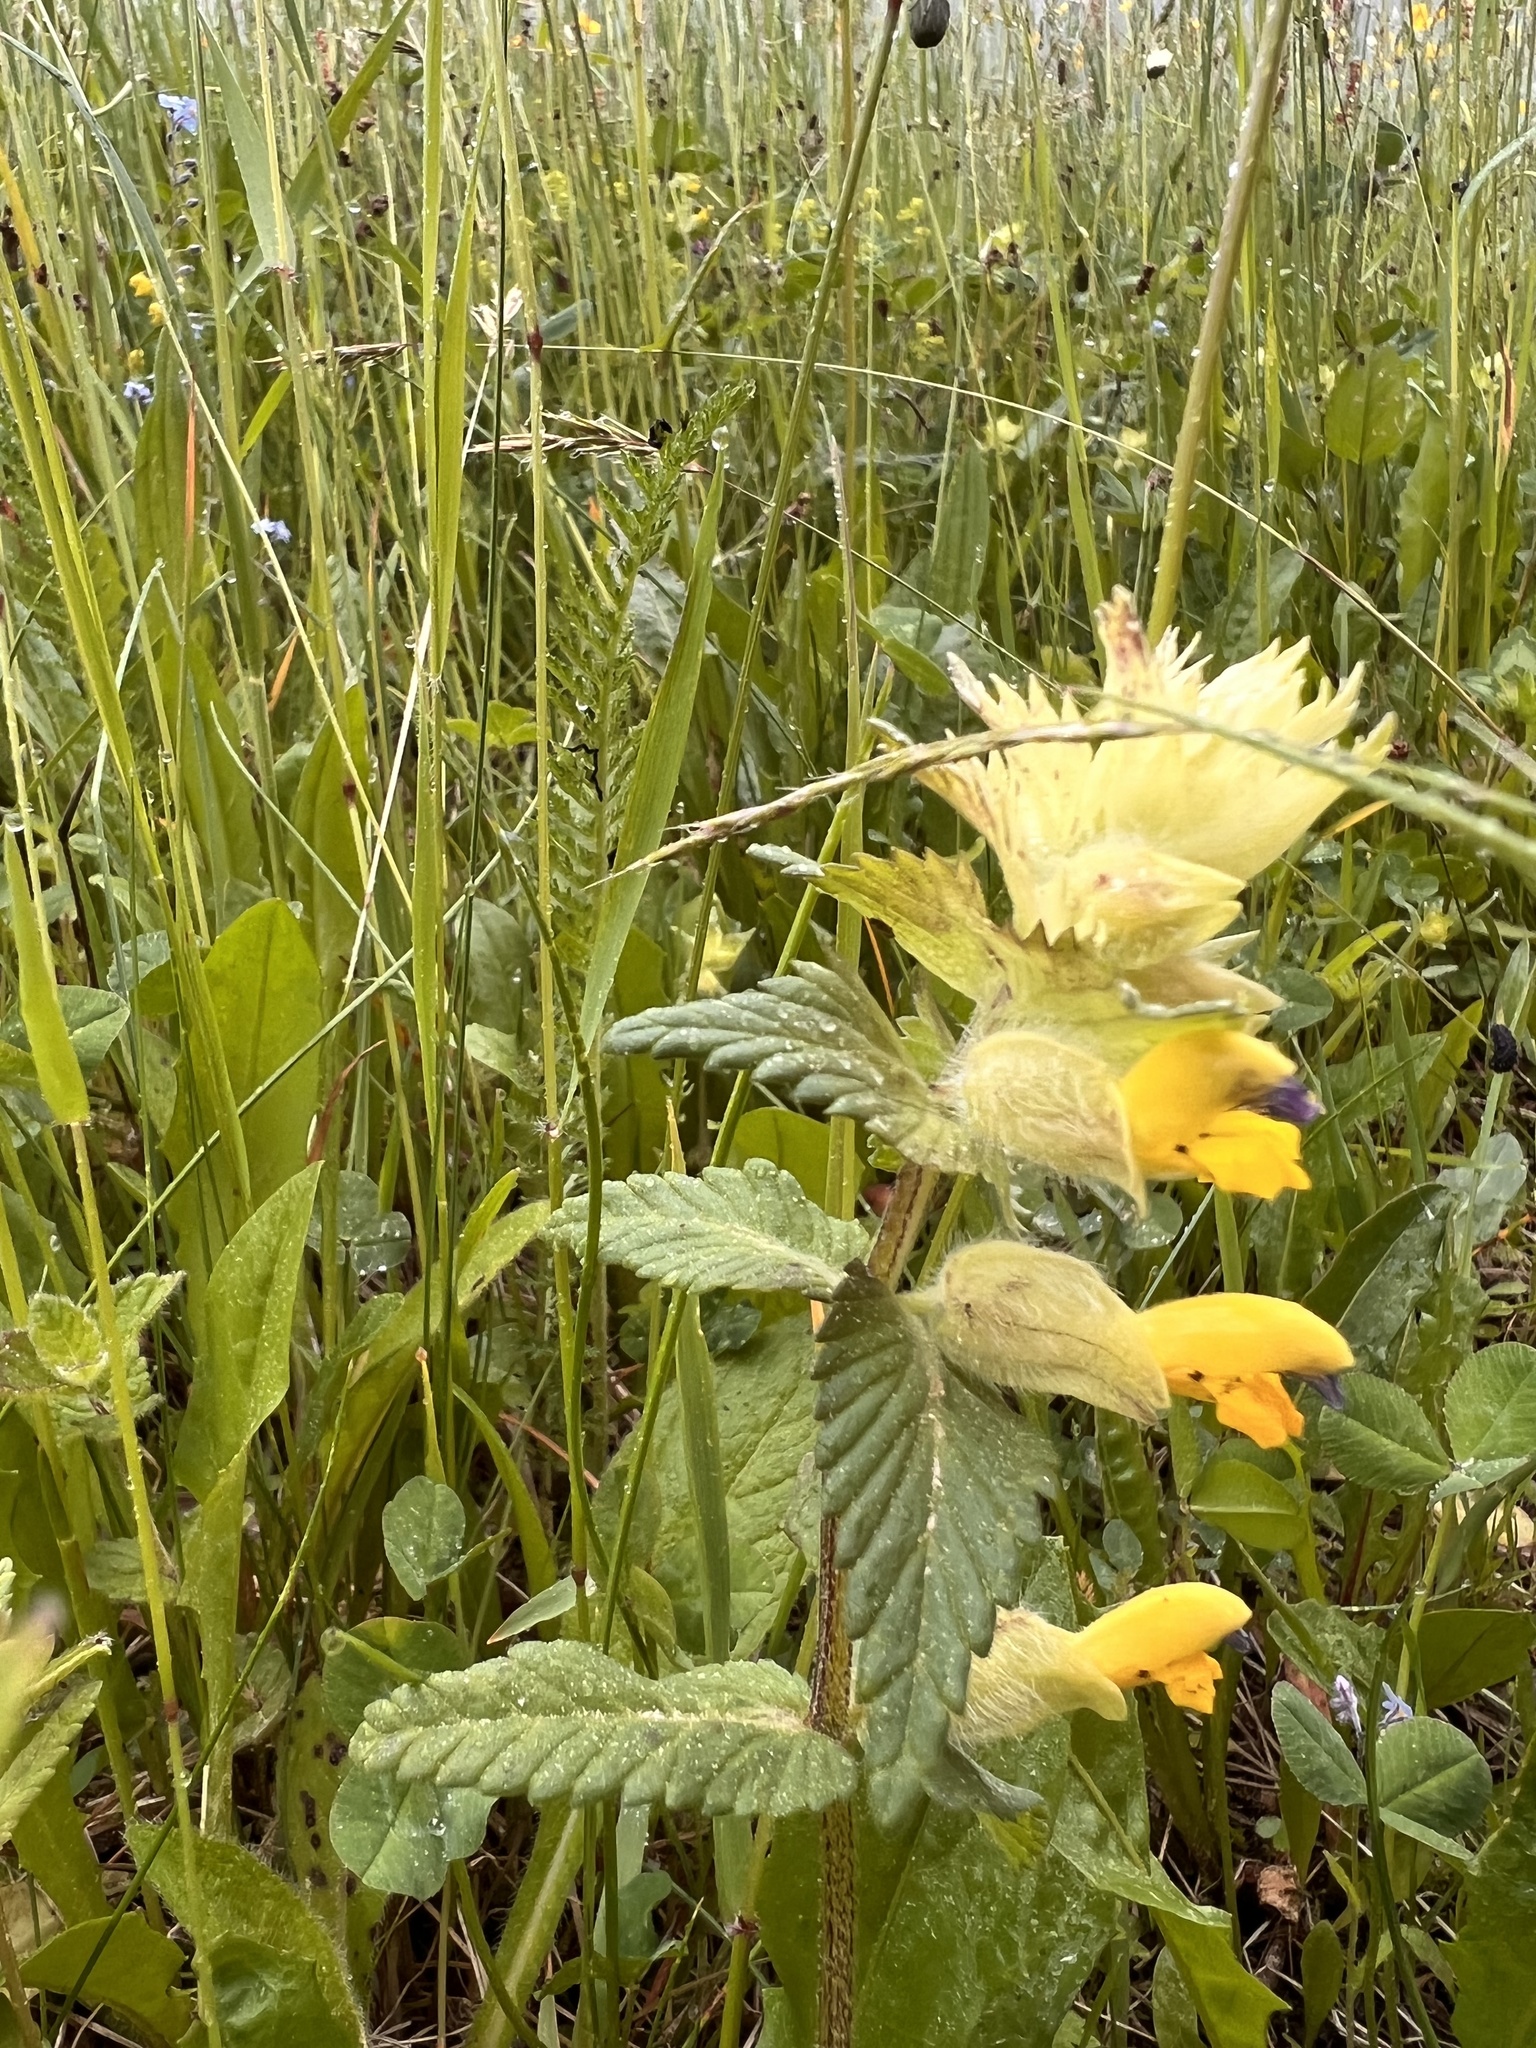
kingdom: Plantae
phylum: Tracheophyta
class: Magnoliopsida
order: Lamiales
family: Orobanchaceae
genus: Rhinanthus
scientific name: Rhinanthus alectorolophus
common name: Greater yellow-rattle
